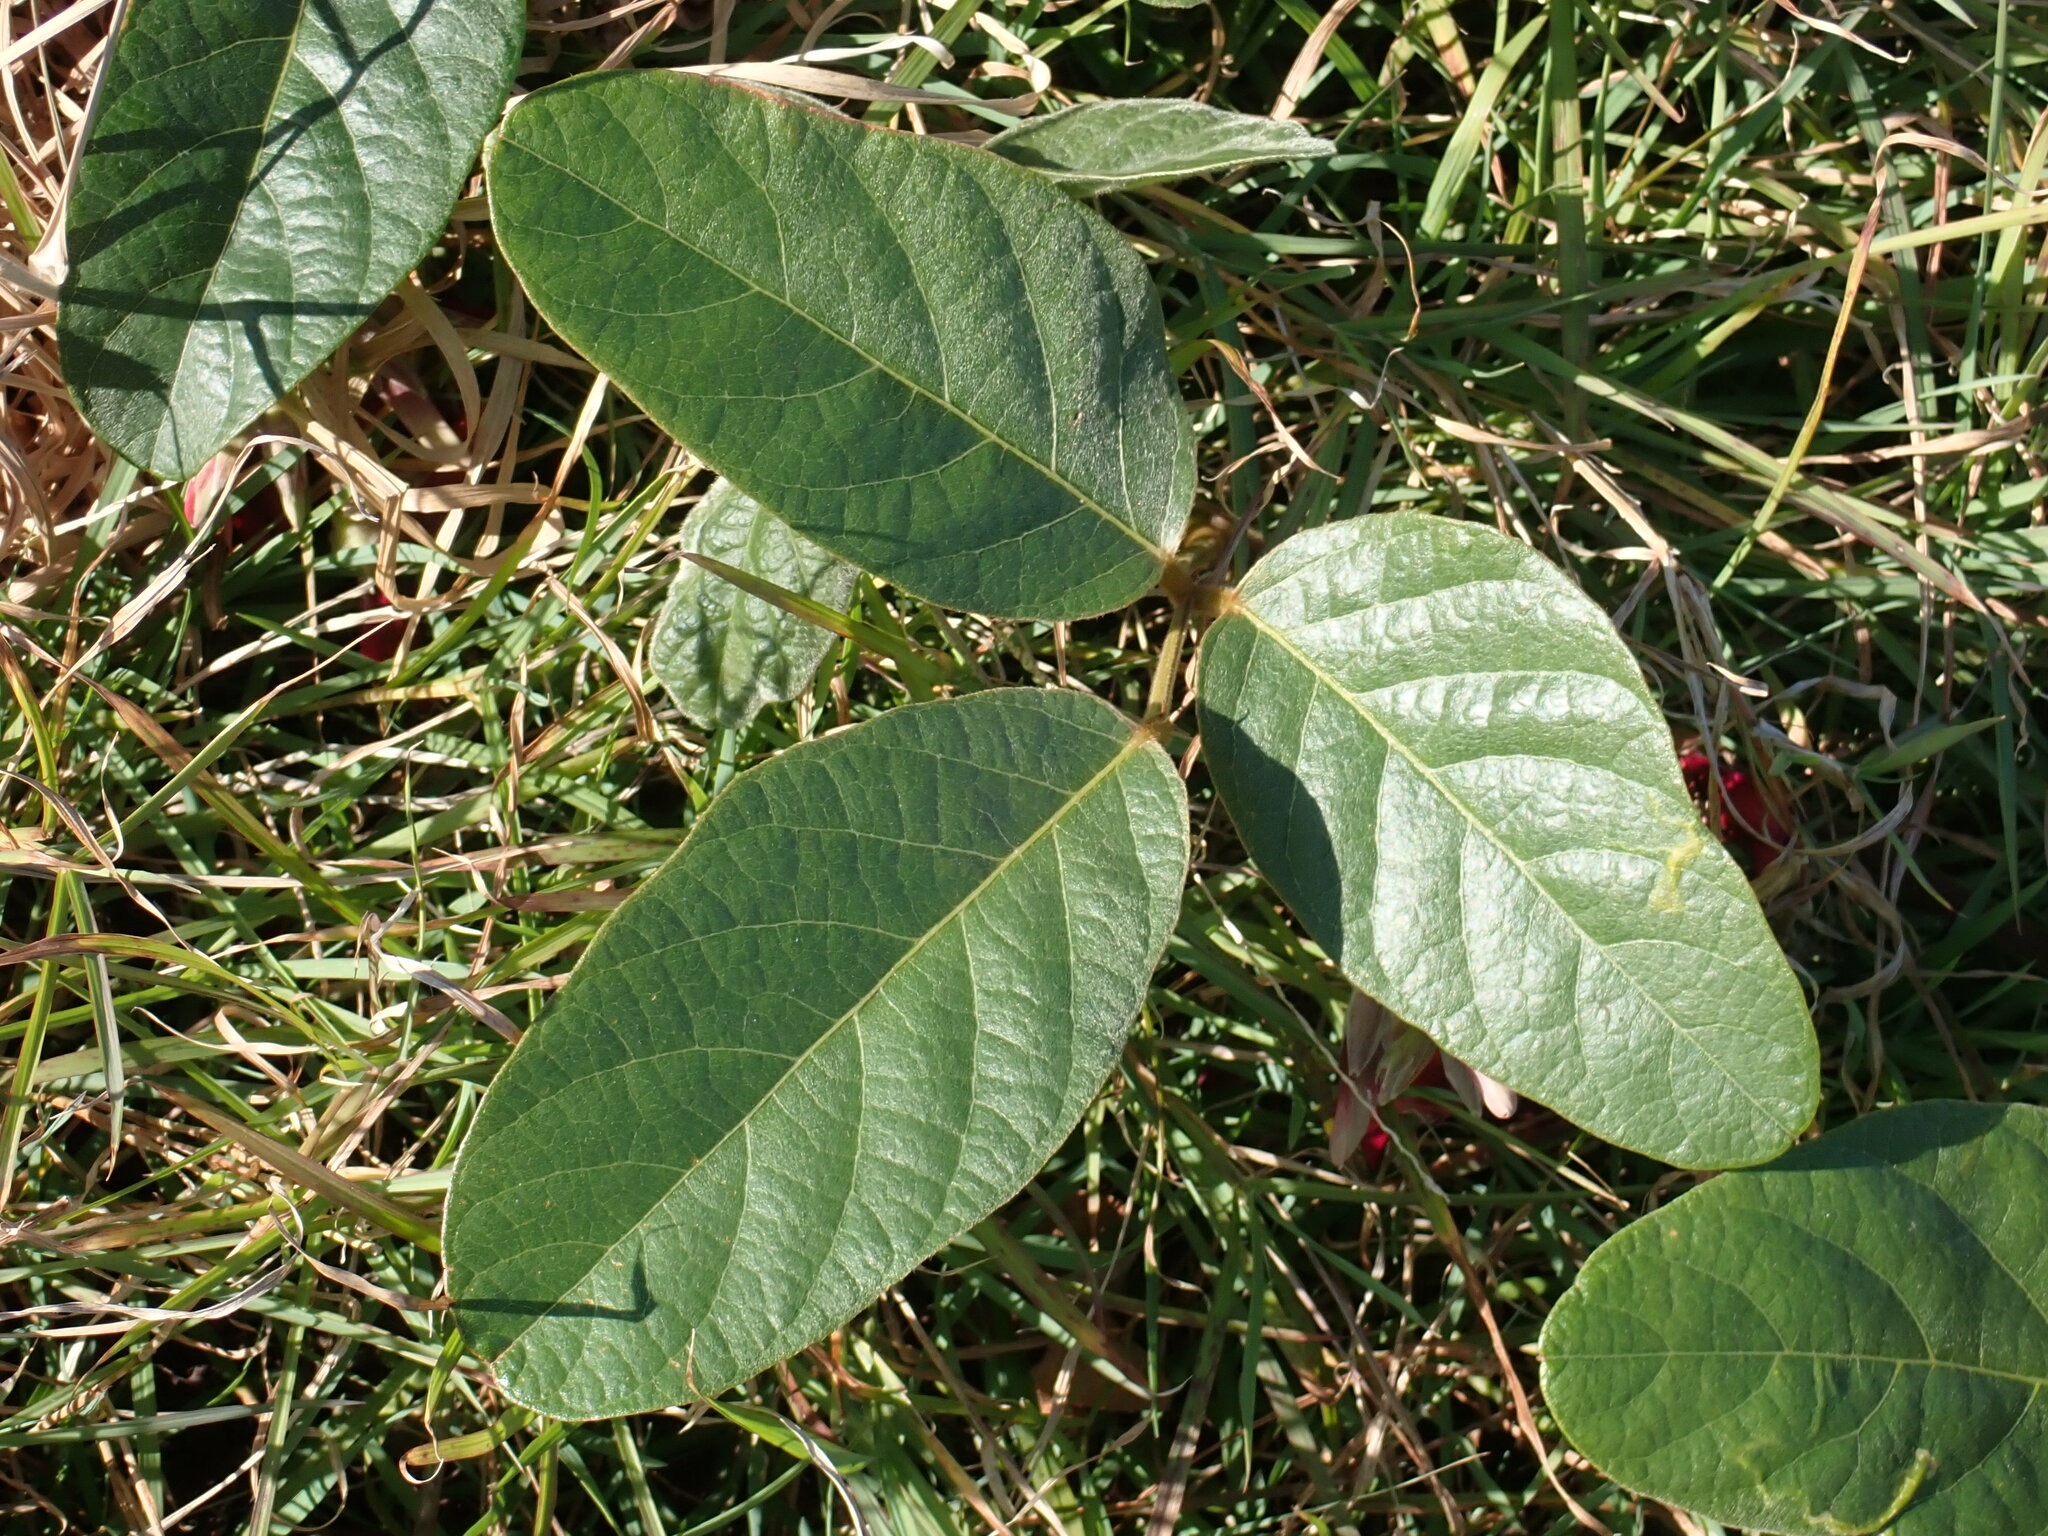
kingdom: Plantae
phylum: Tracheophyta
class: Magnoliopsida
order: Fabales
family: Fabaceae
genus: Kennedia
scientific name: Kennedia rubicunda
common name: Red kennedy-pea
